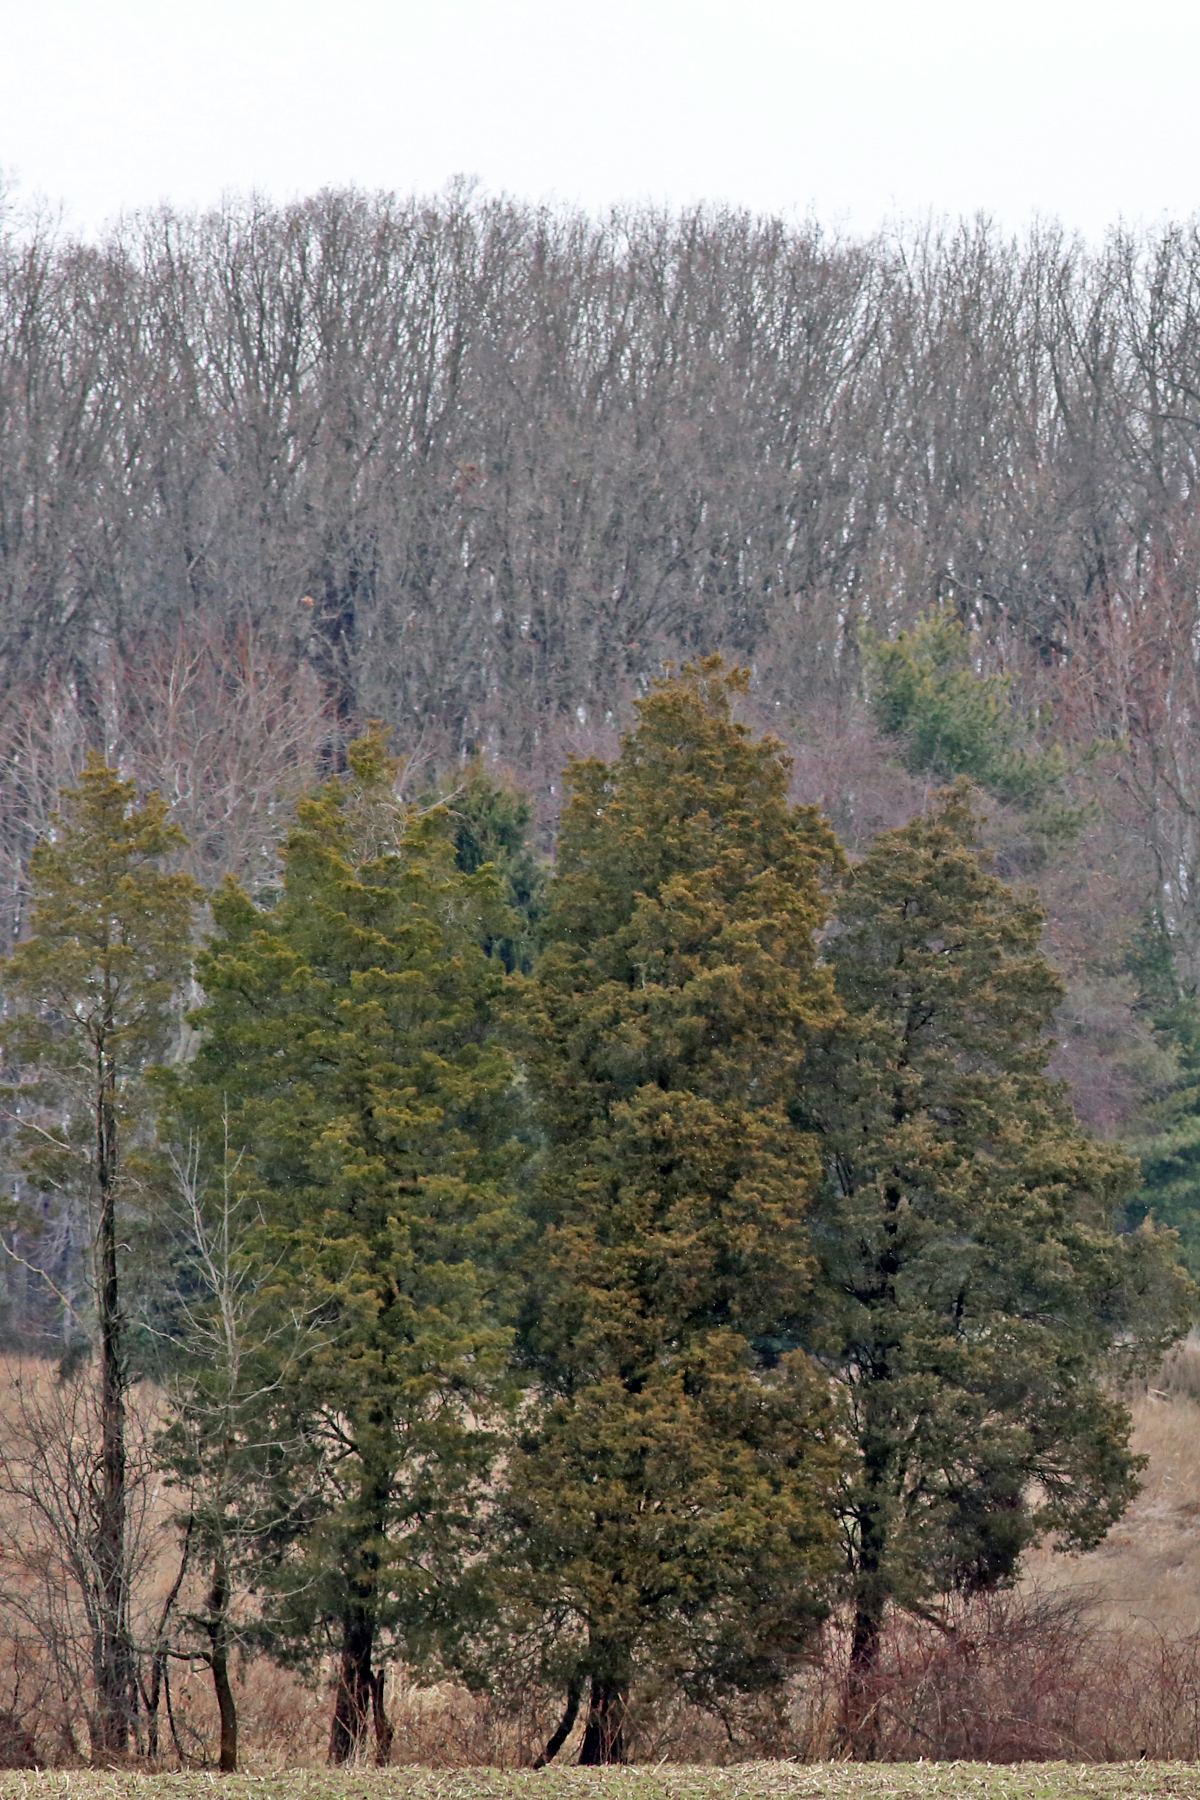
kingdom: Plantae
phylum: Tracheophyta
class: Pinopsida
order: Pinales
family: Cupressaceae
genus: Juniperus
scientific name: Juniperus virginiana
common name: Red juniper
